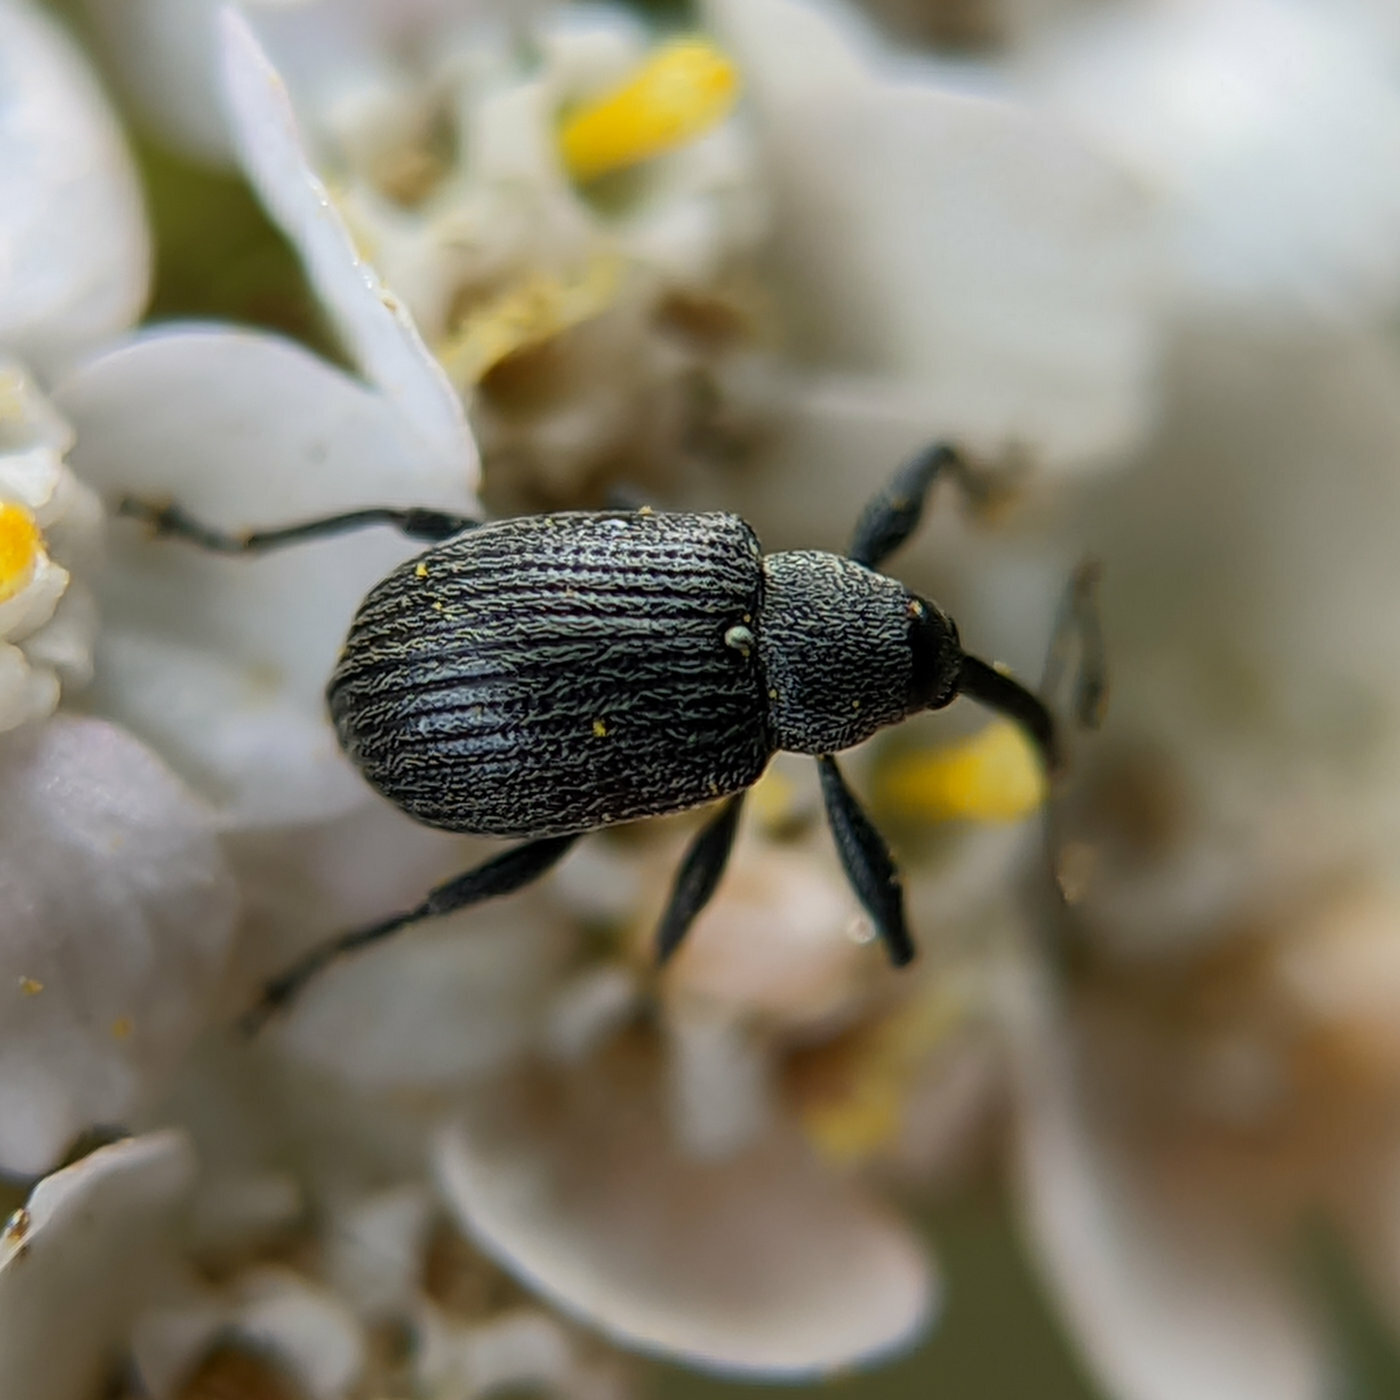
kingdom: Animalia
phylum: Arthropoda
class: Insecta
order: Coleoptera
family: Curculionidae
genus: Anthonomus
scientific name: Anthonomus rubi
